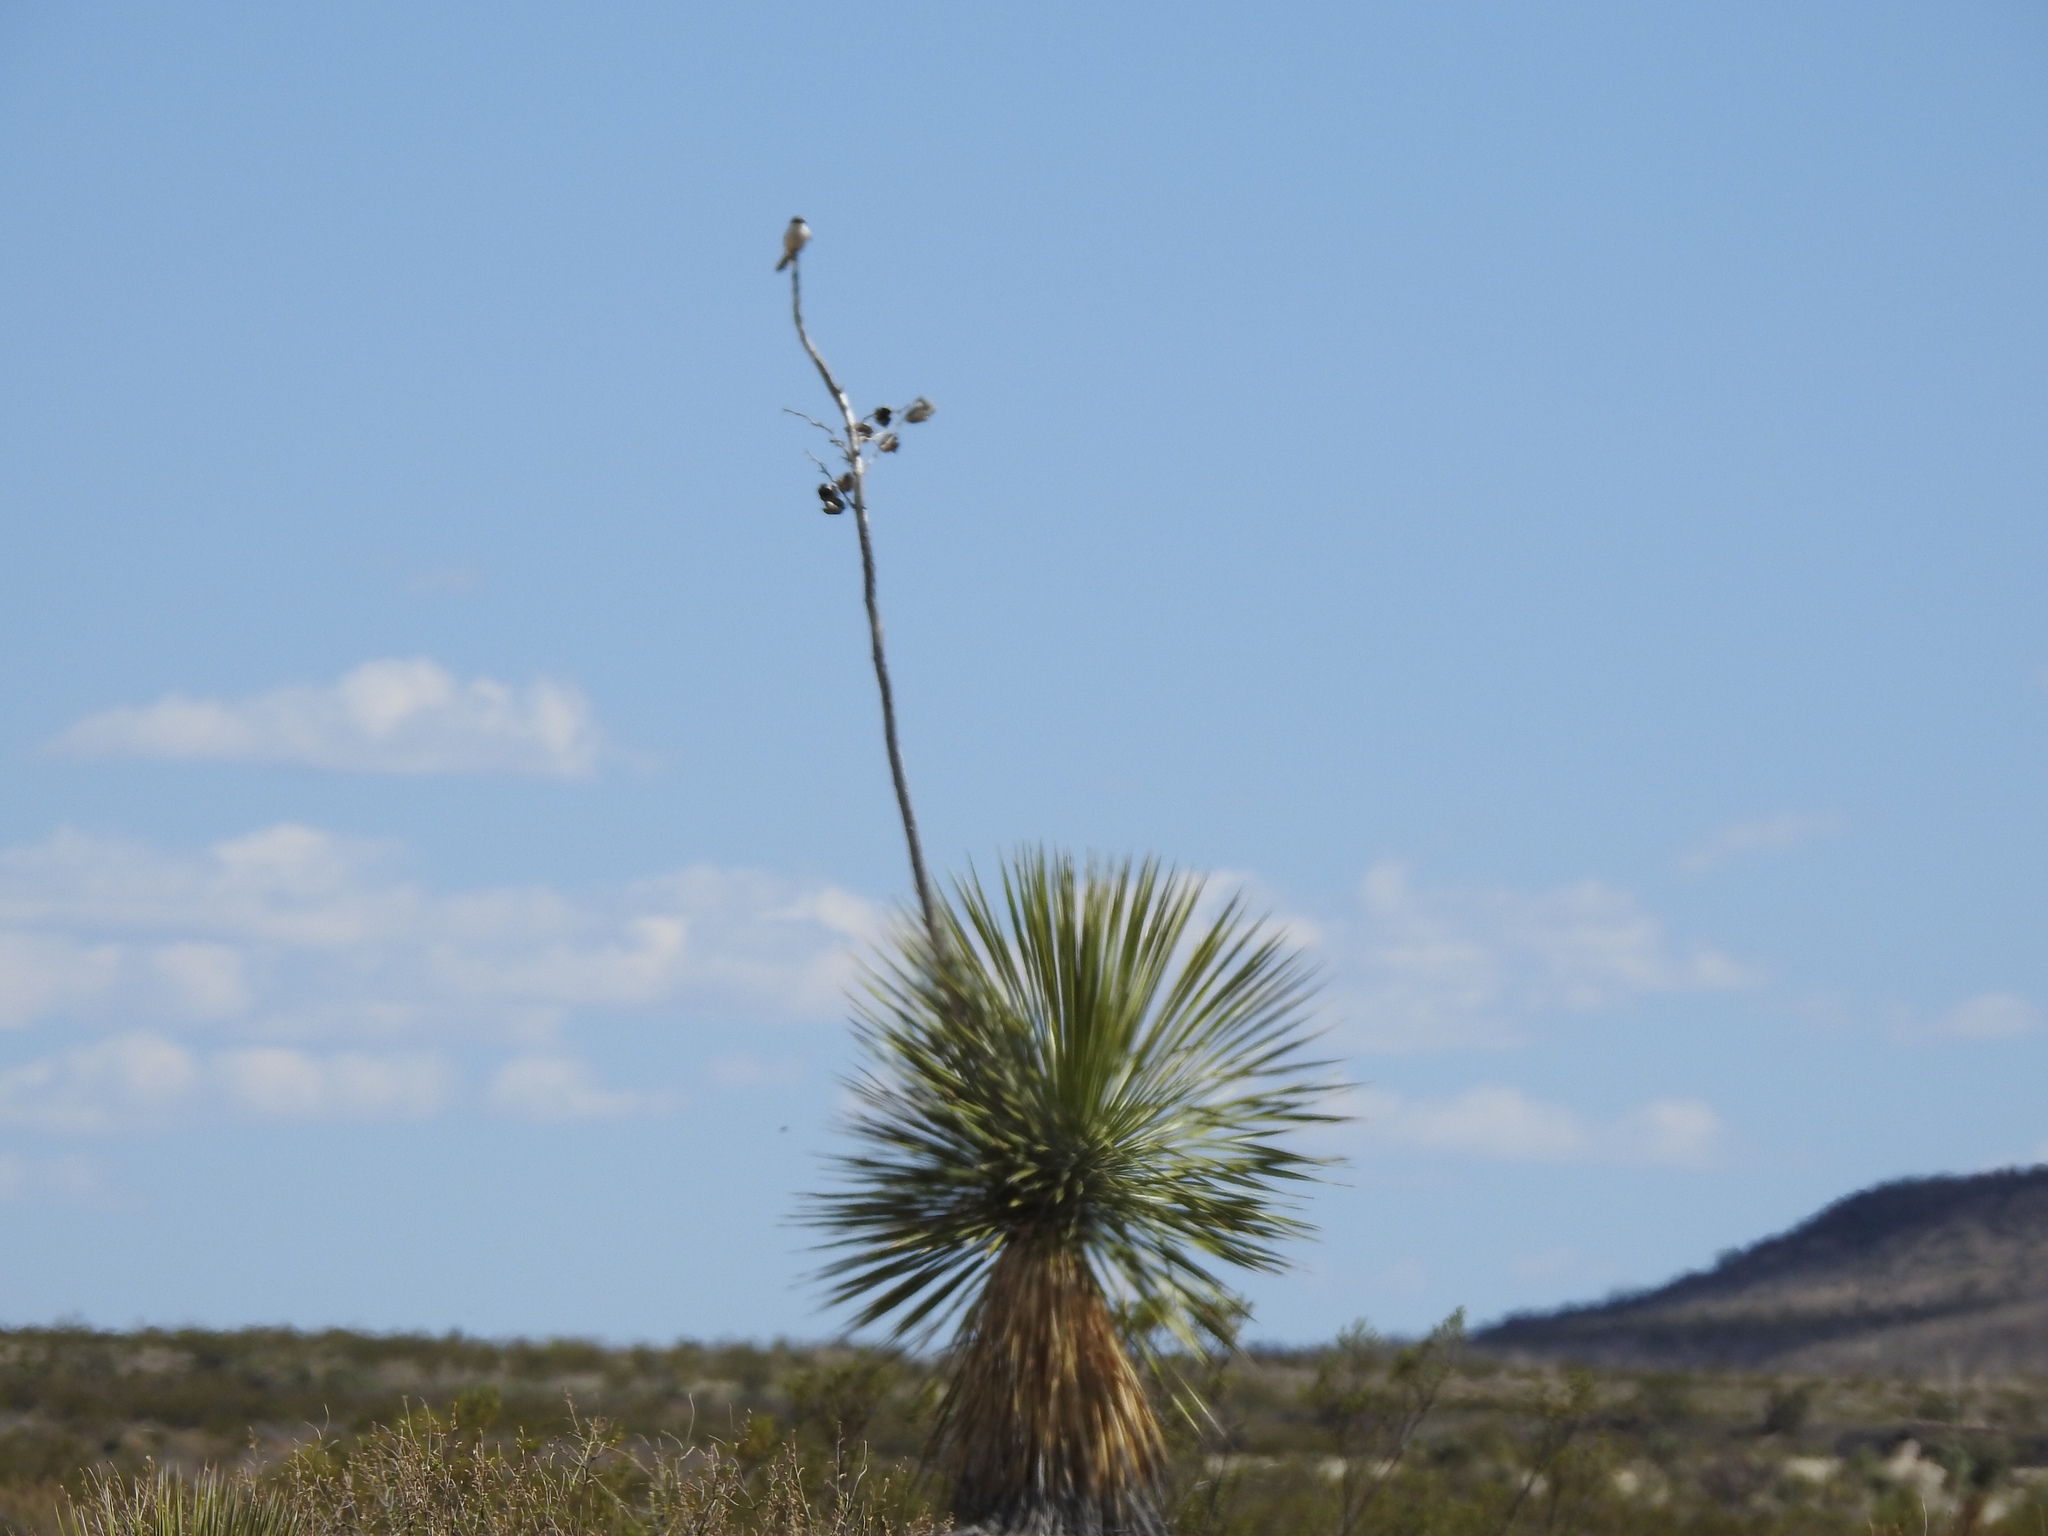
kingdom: Animalia
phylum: Chordata
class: Aves
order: Passeriformes
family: Laniidae
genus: Lanius
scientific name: Lanius ludovicianus
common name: Loggerhead shrike
